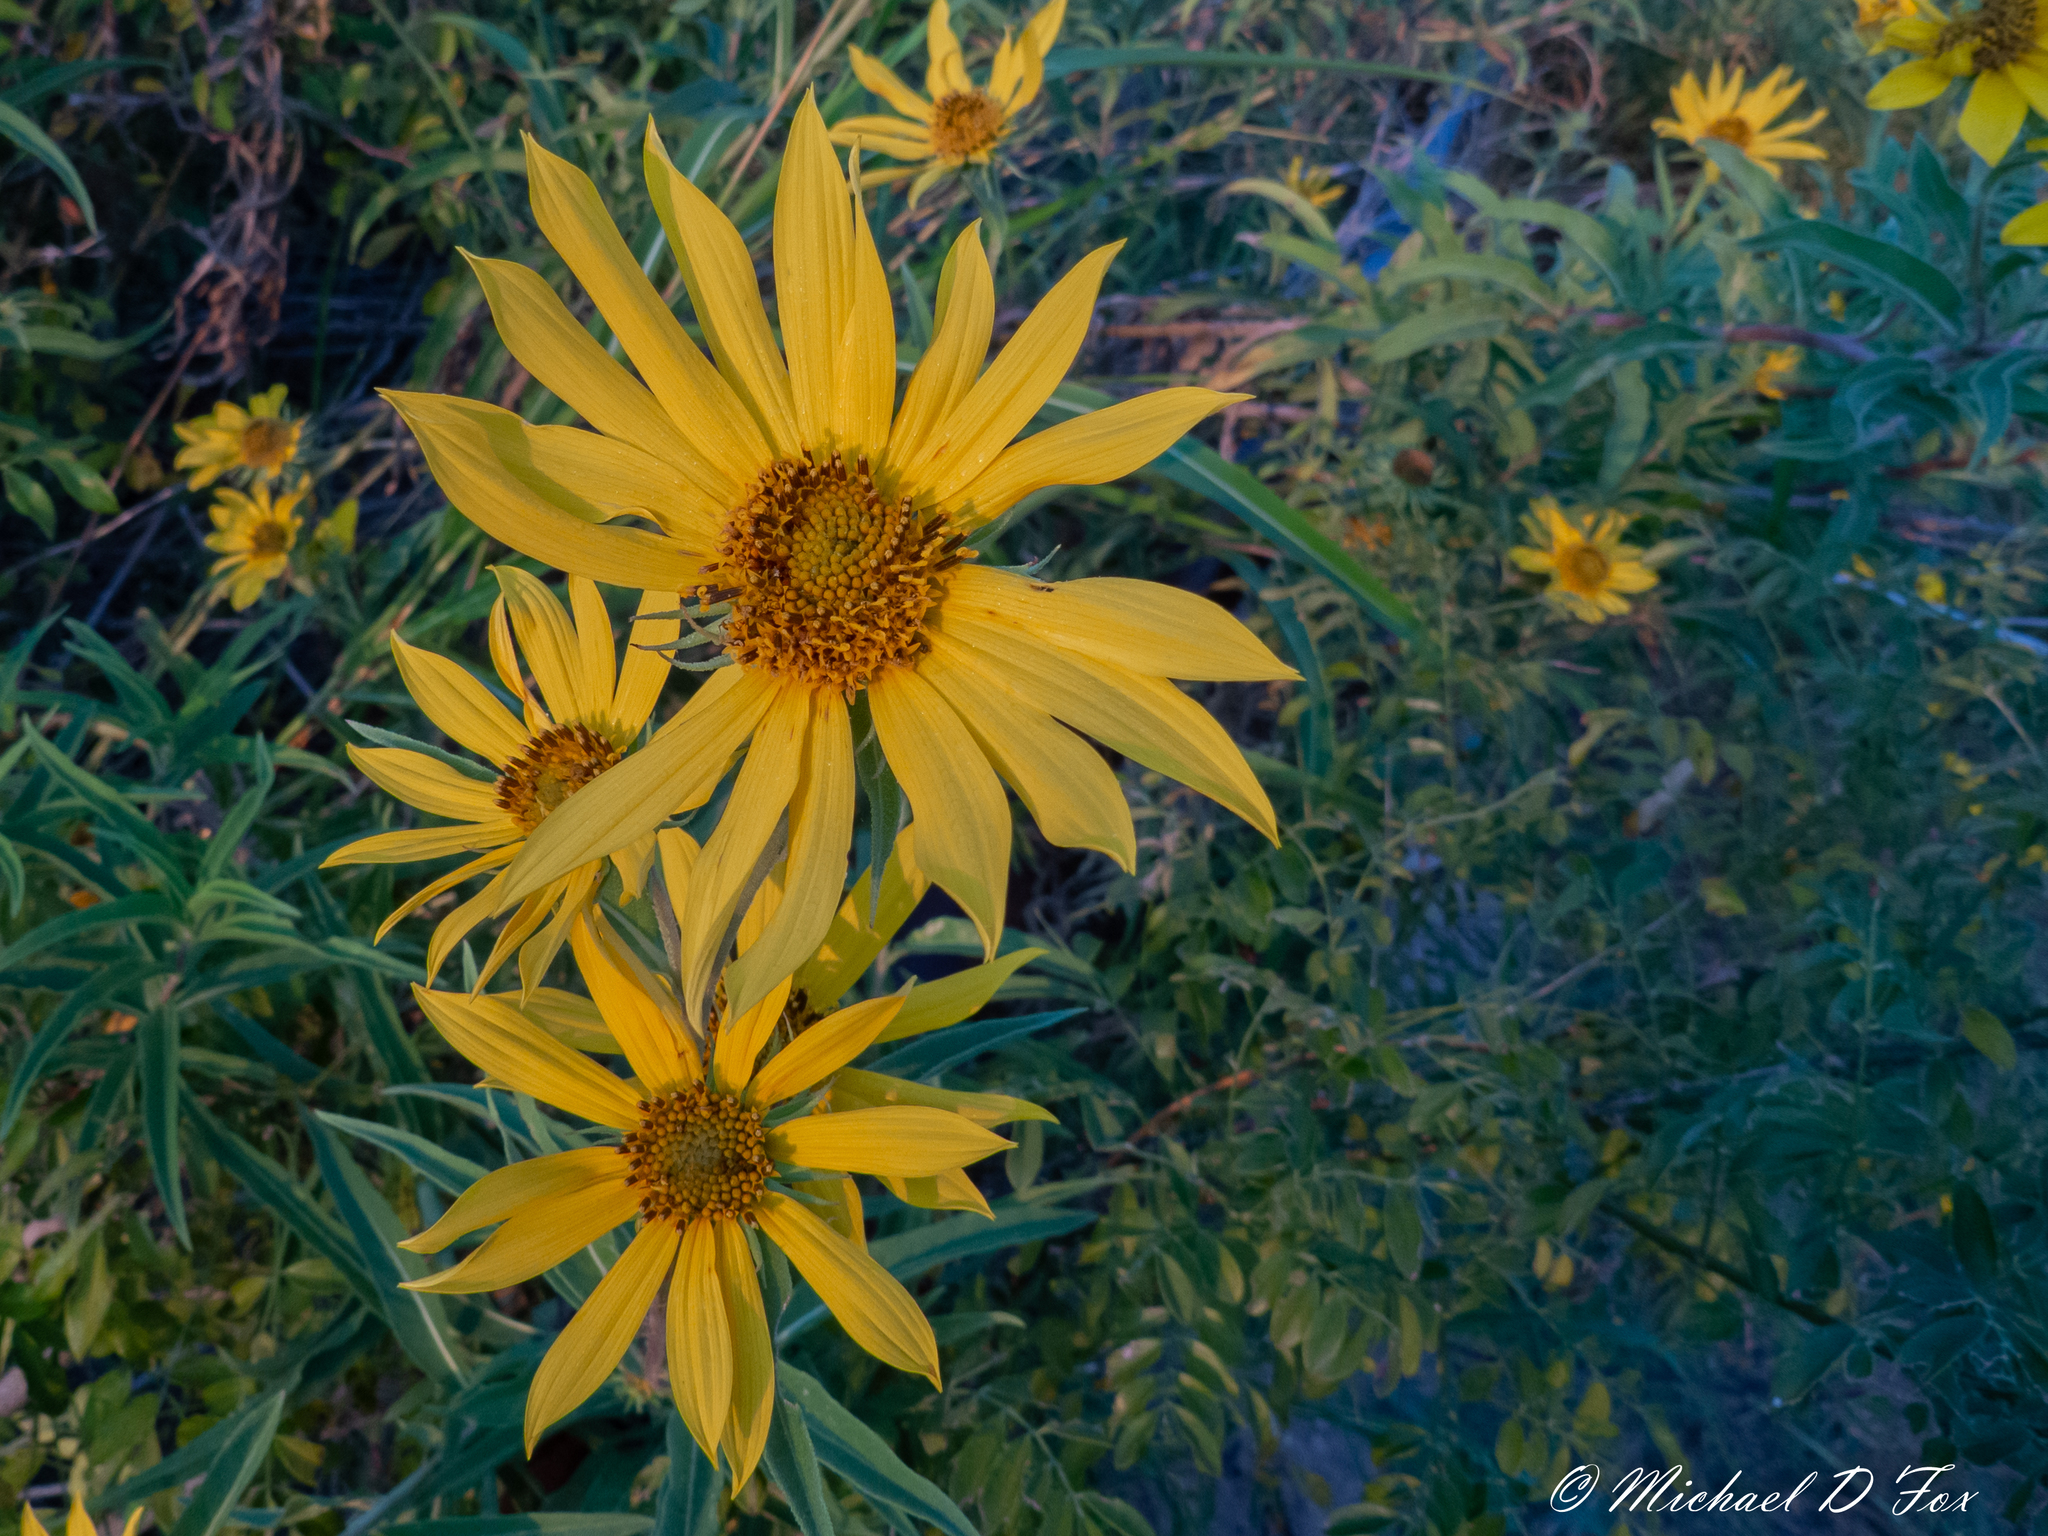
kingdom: Plantae
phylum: Tracheophyta
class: Magnoliopsida
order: Asterales
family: Asteraceae
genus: Helianthus
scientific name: Helianthus maximiliani
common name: Maximilian's sunflower
